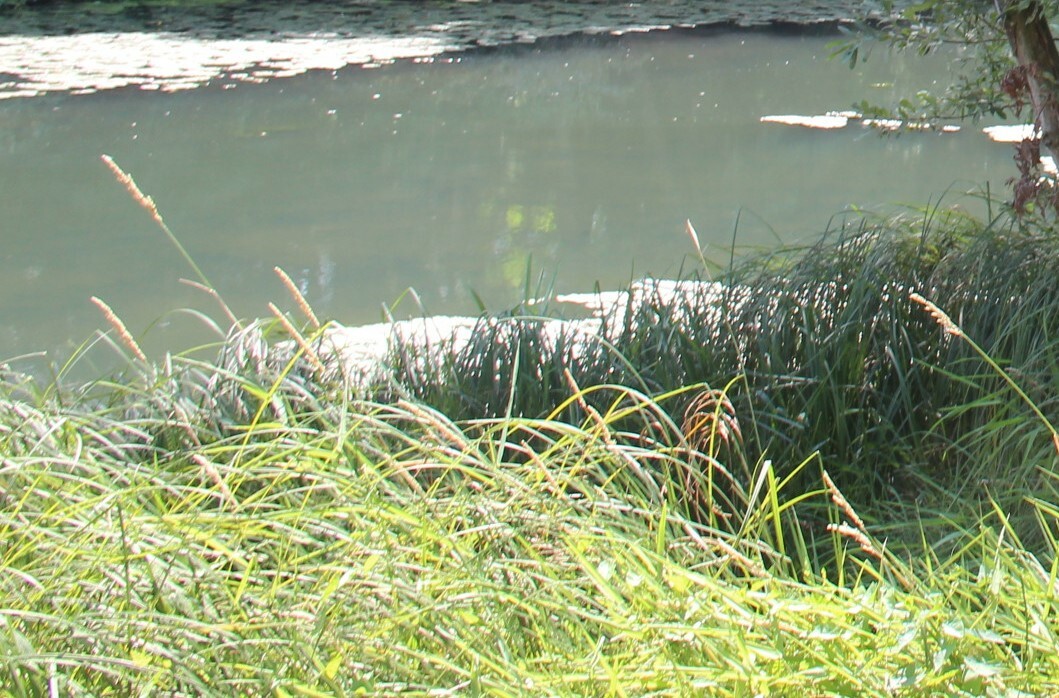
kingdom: Plantae
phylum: Tracheophyta
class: Liliopsida
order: Poales
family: Poaceae
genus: Phalaris
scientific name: Phalaris arundinacea
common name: Reed canary-grass
